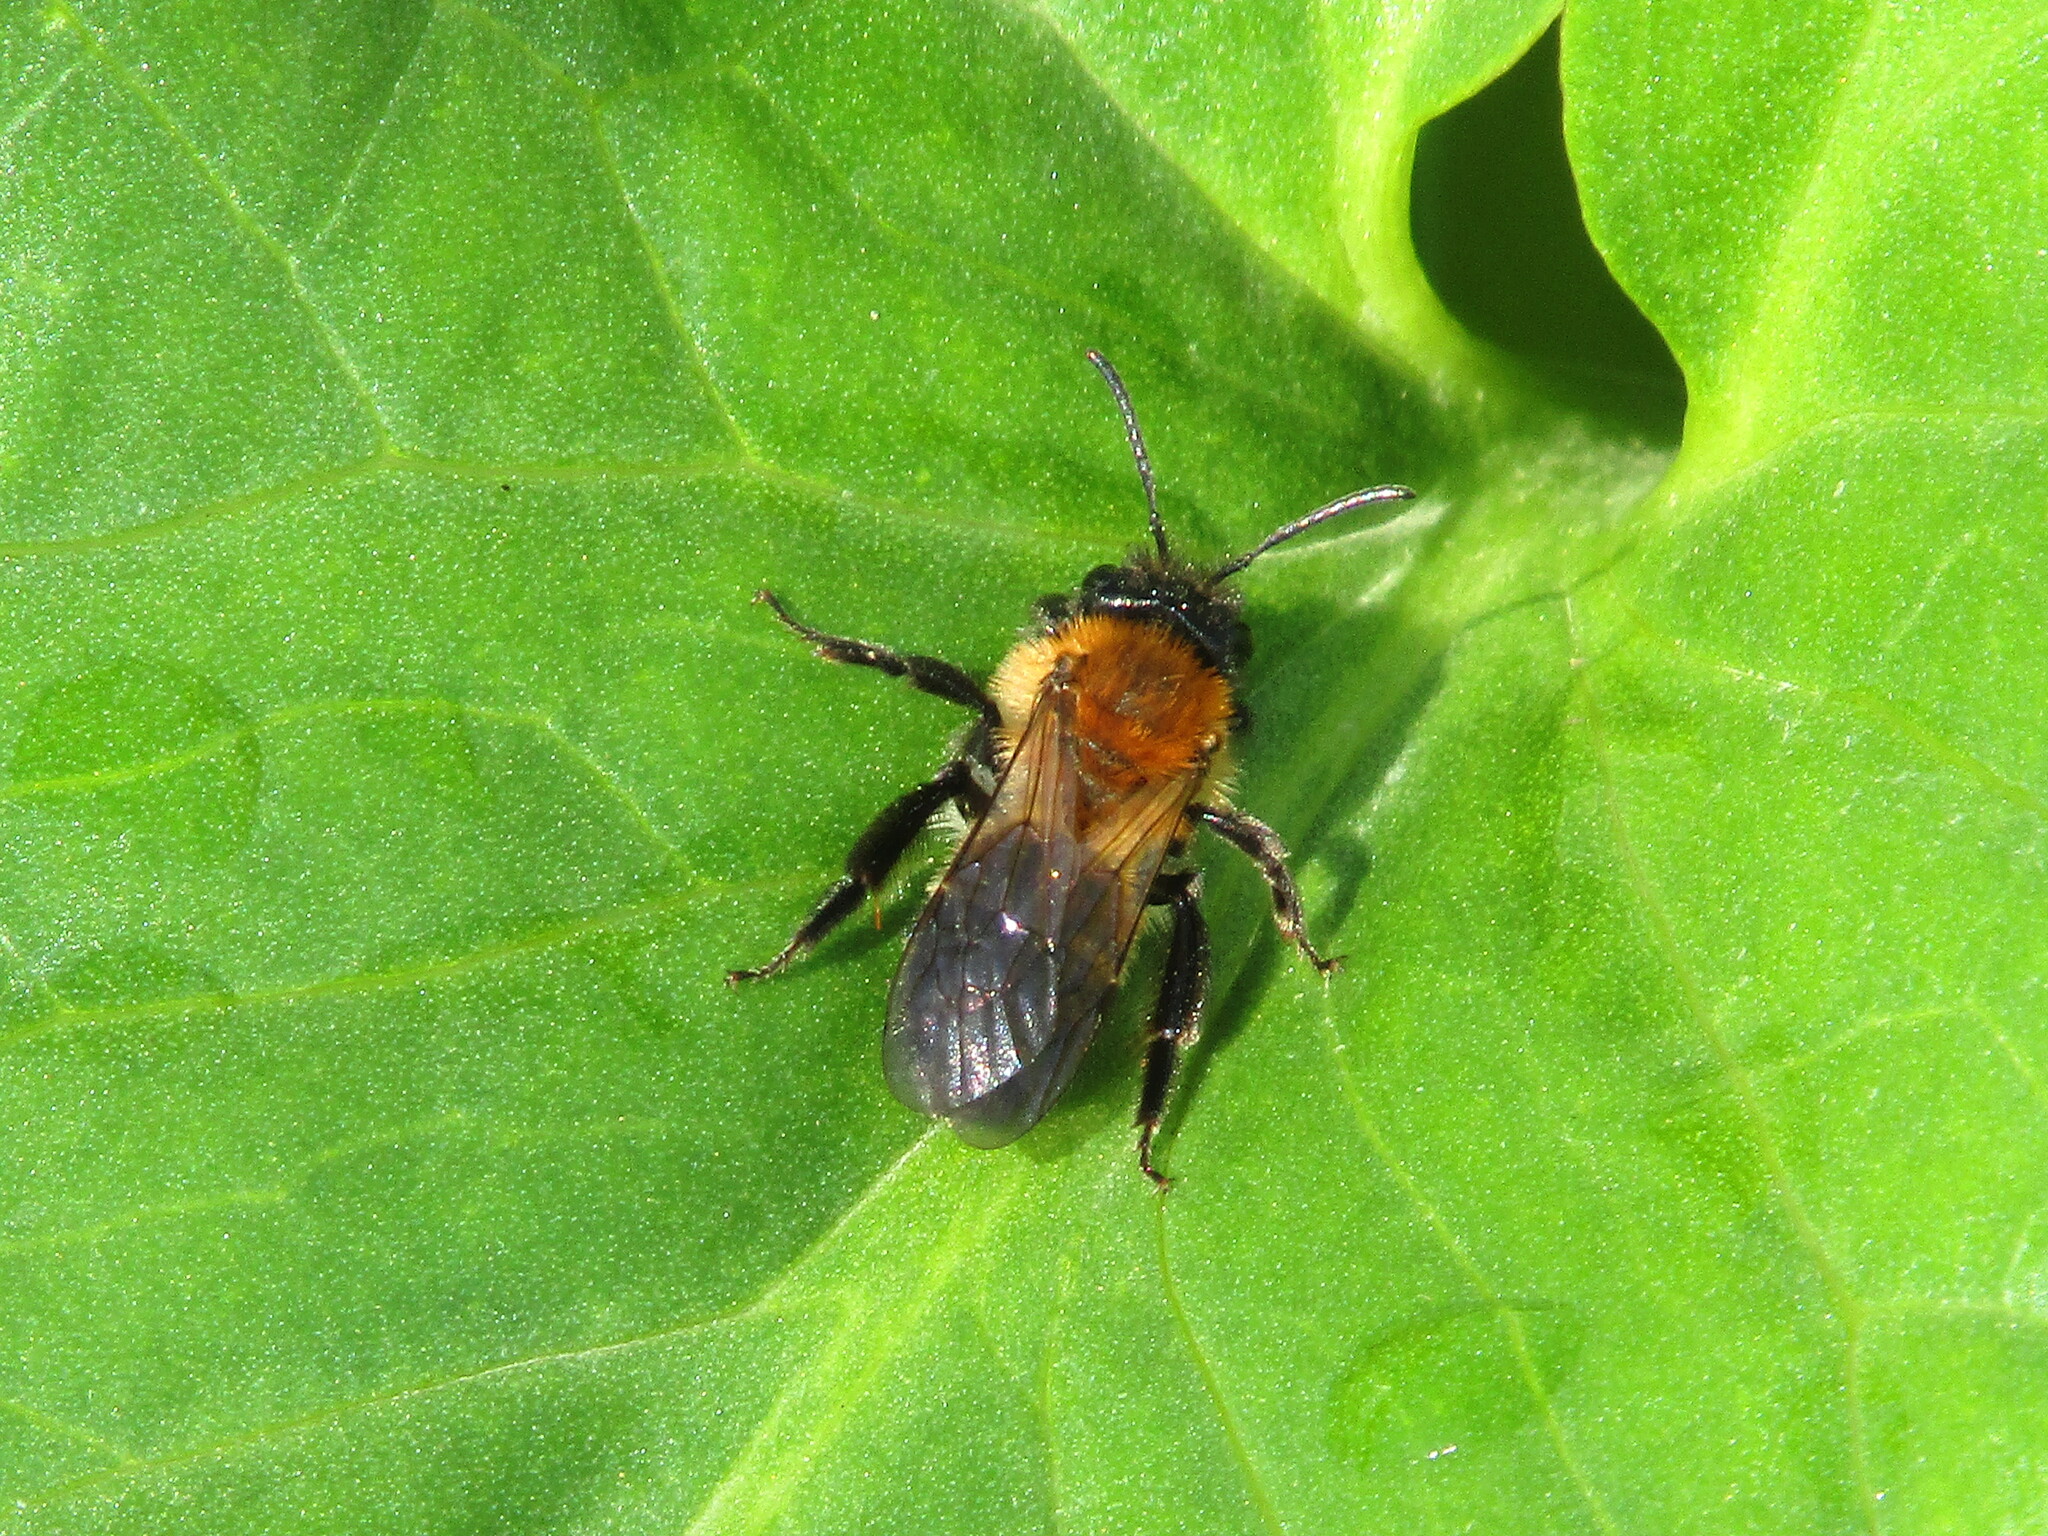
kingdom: Animalia
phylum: Arthropoda
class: Insecta
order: Hymenoptera
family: Andrenidae
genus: Andrena
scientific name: Andrena nitida
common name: Grey-patched mining bee
